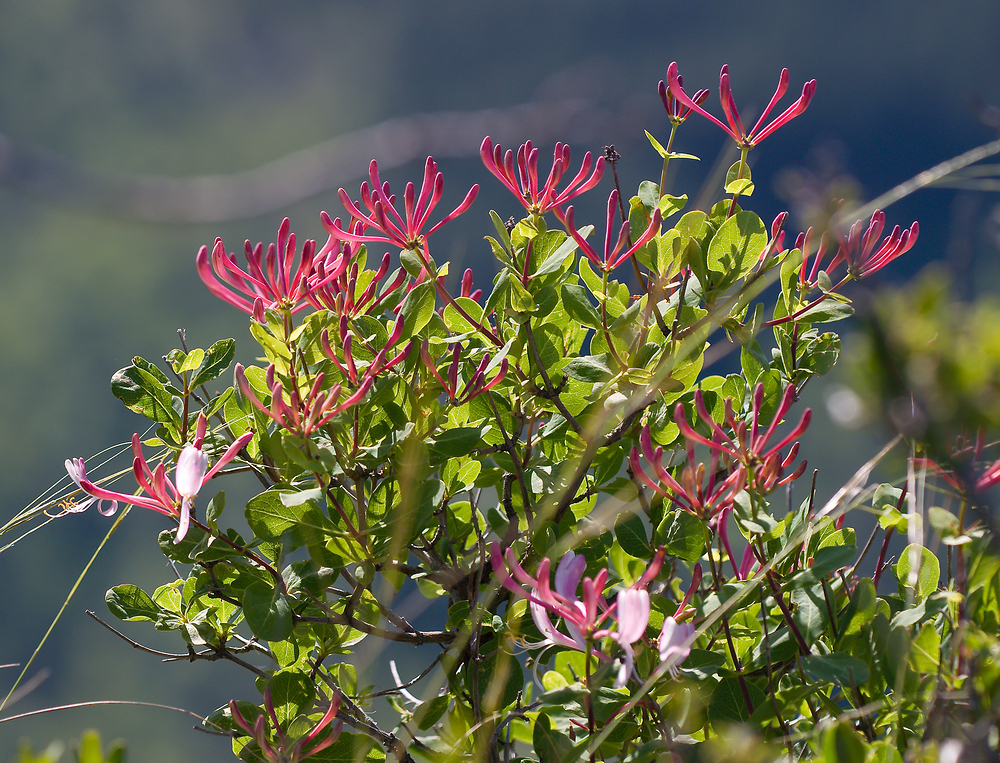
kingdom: Plantae
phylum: Tracheophyta
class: Magnoliopsida
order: Dipsacales
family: Caprifoliaceae
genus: Lonicera
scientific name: Lonicera etrusca
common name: Etruscan honeysuckle
